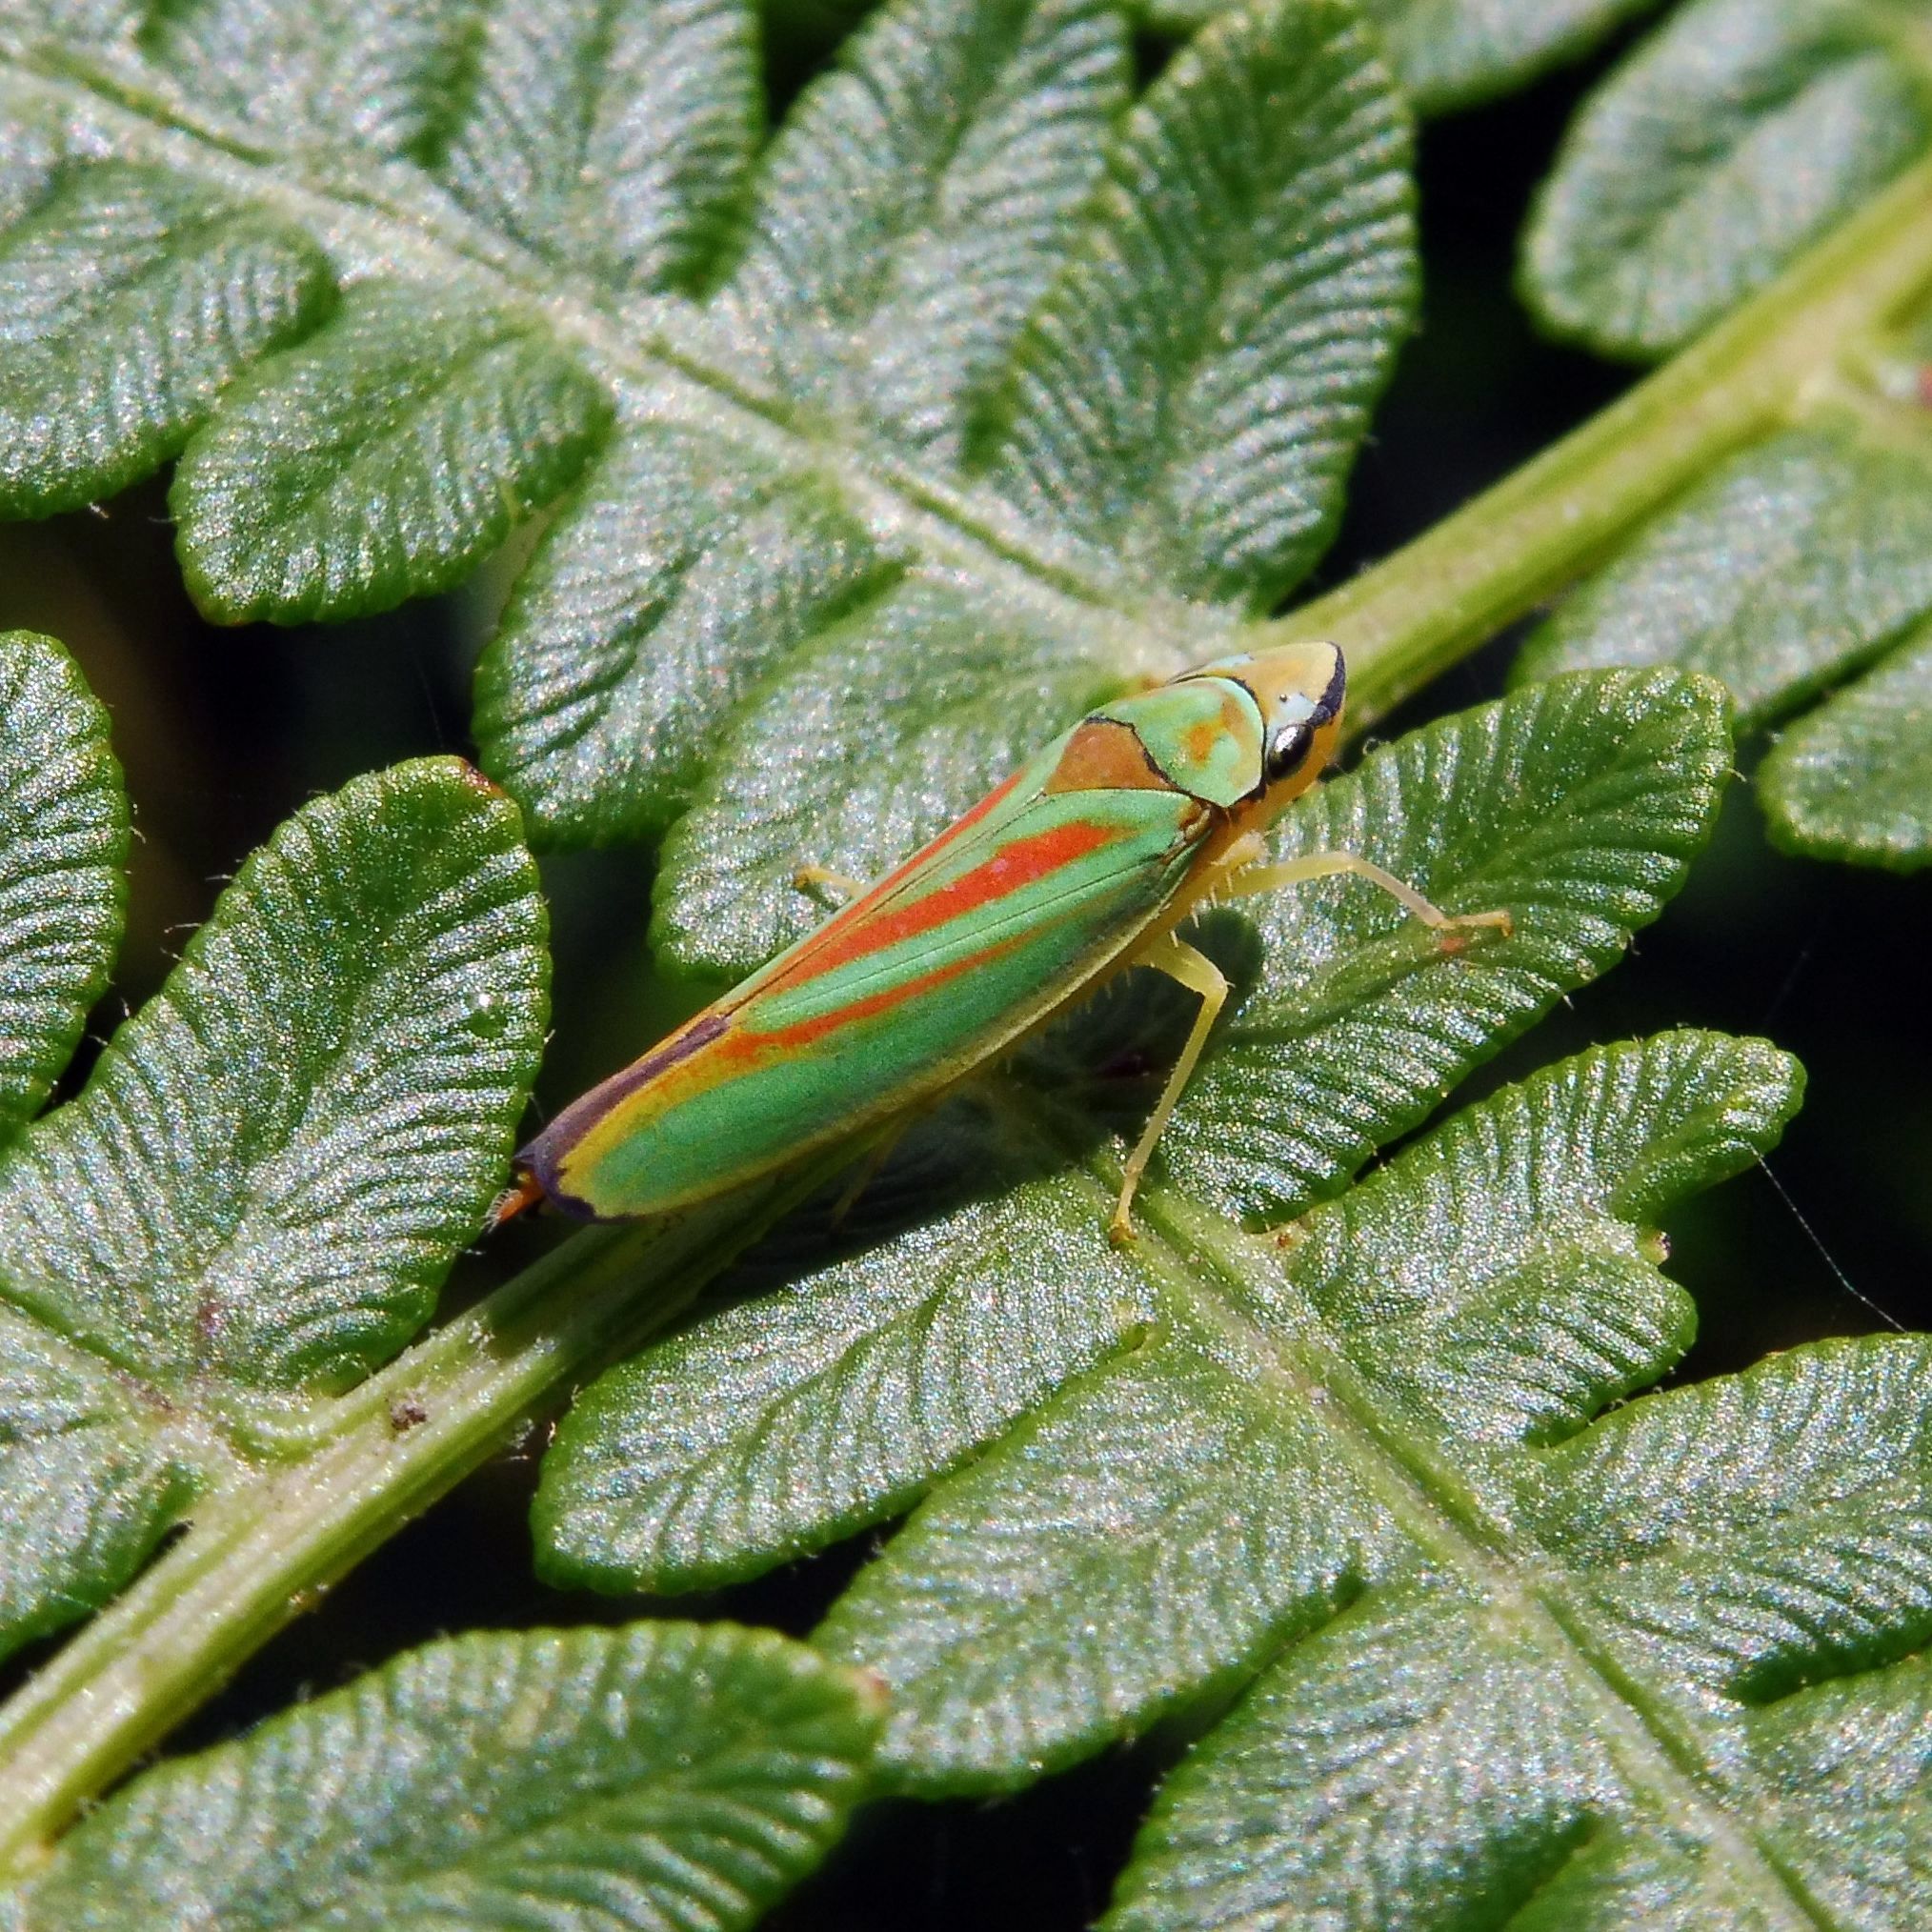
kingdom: Animalia
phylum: Arthropoda
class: Insecta
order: Hemiptera
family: Cicadellidae
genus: Graphocephala
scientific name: Graphocephala fennahi
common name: Rhododendron leafhopper
